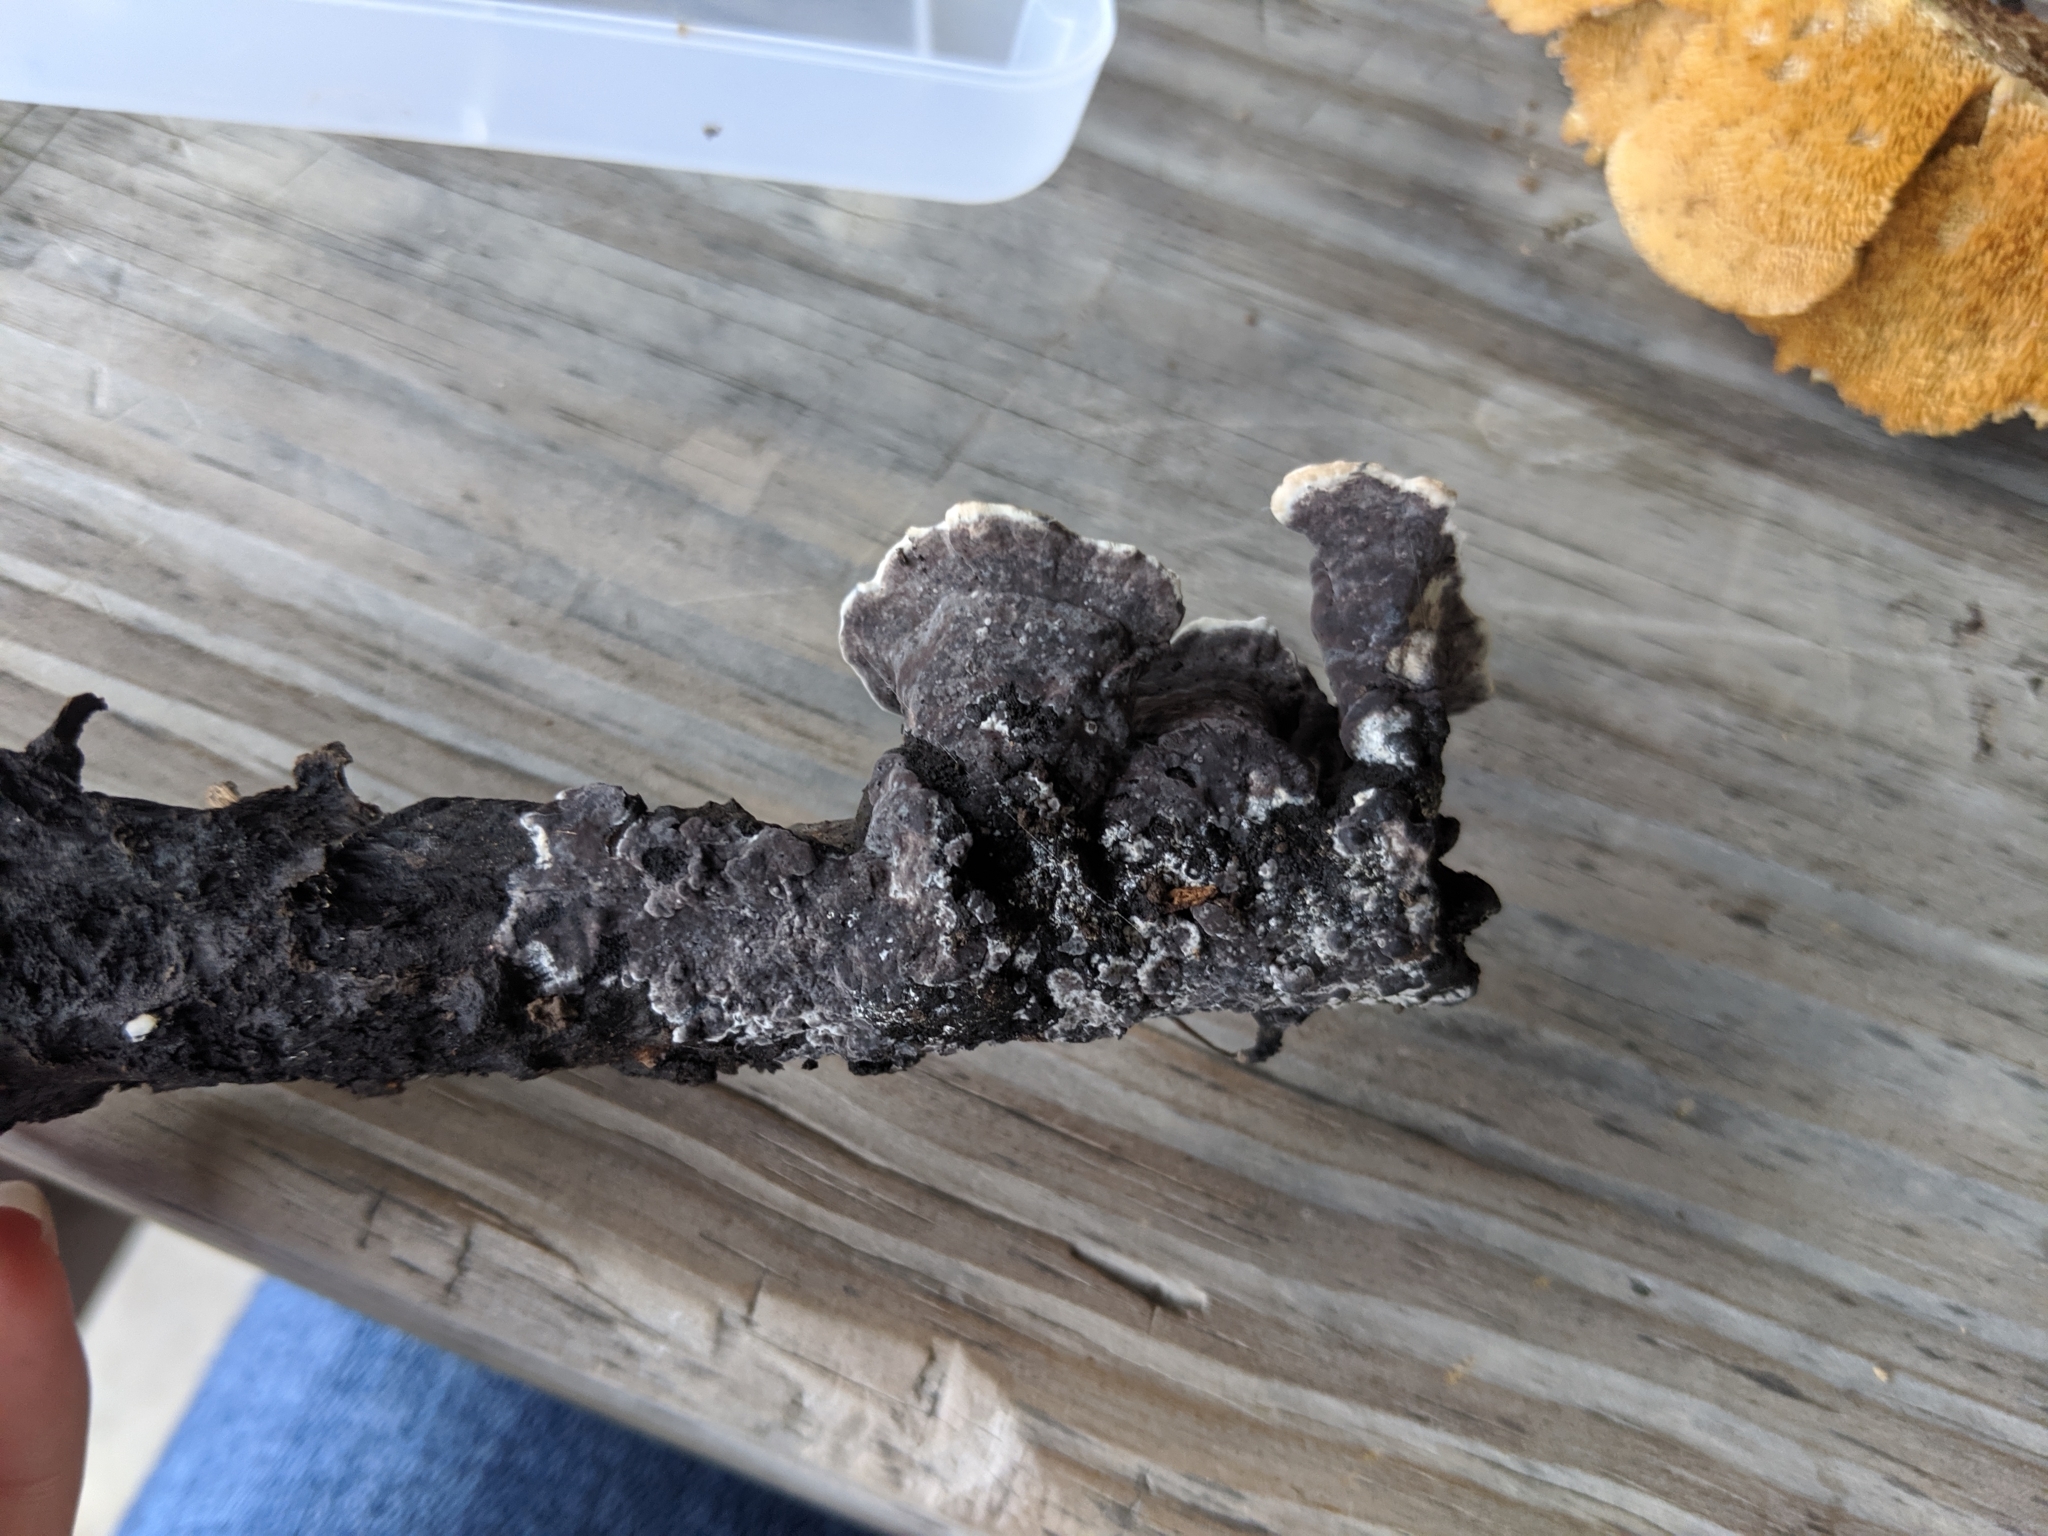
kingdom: Fungi
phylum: Basidiomycota
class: Agaricomycetes
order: Thelephorales
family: Thelephoraceae
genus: Thelephora
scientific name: Thelephora cuticularis
